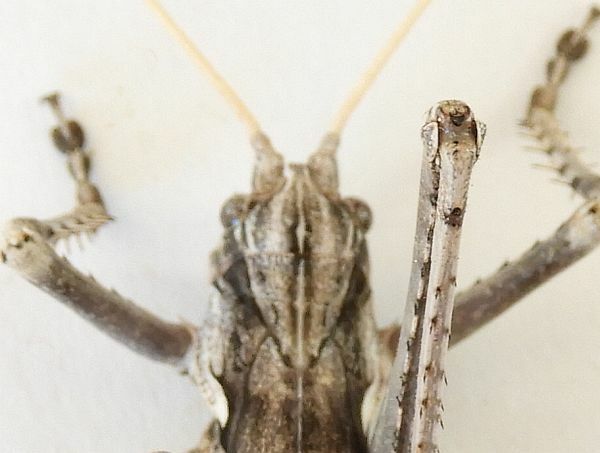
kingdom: Animalia
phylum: Arthropoda
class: Insecta
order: Orthoptera
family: Tettigoniidae
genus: Capnobotes
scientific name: Capnobotes fuliginosus
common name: Sooty longwing
